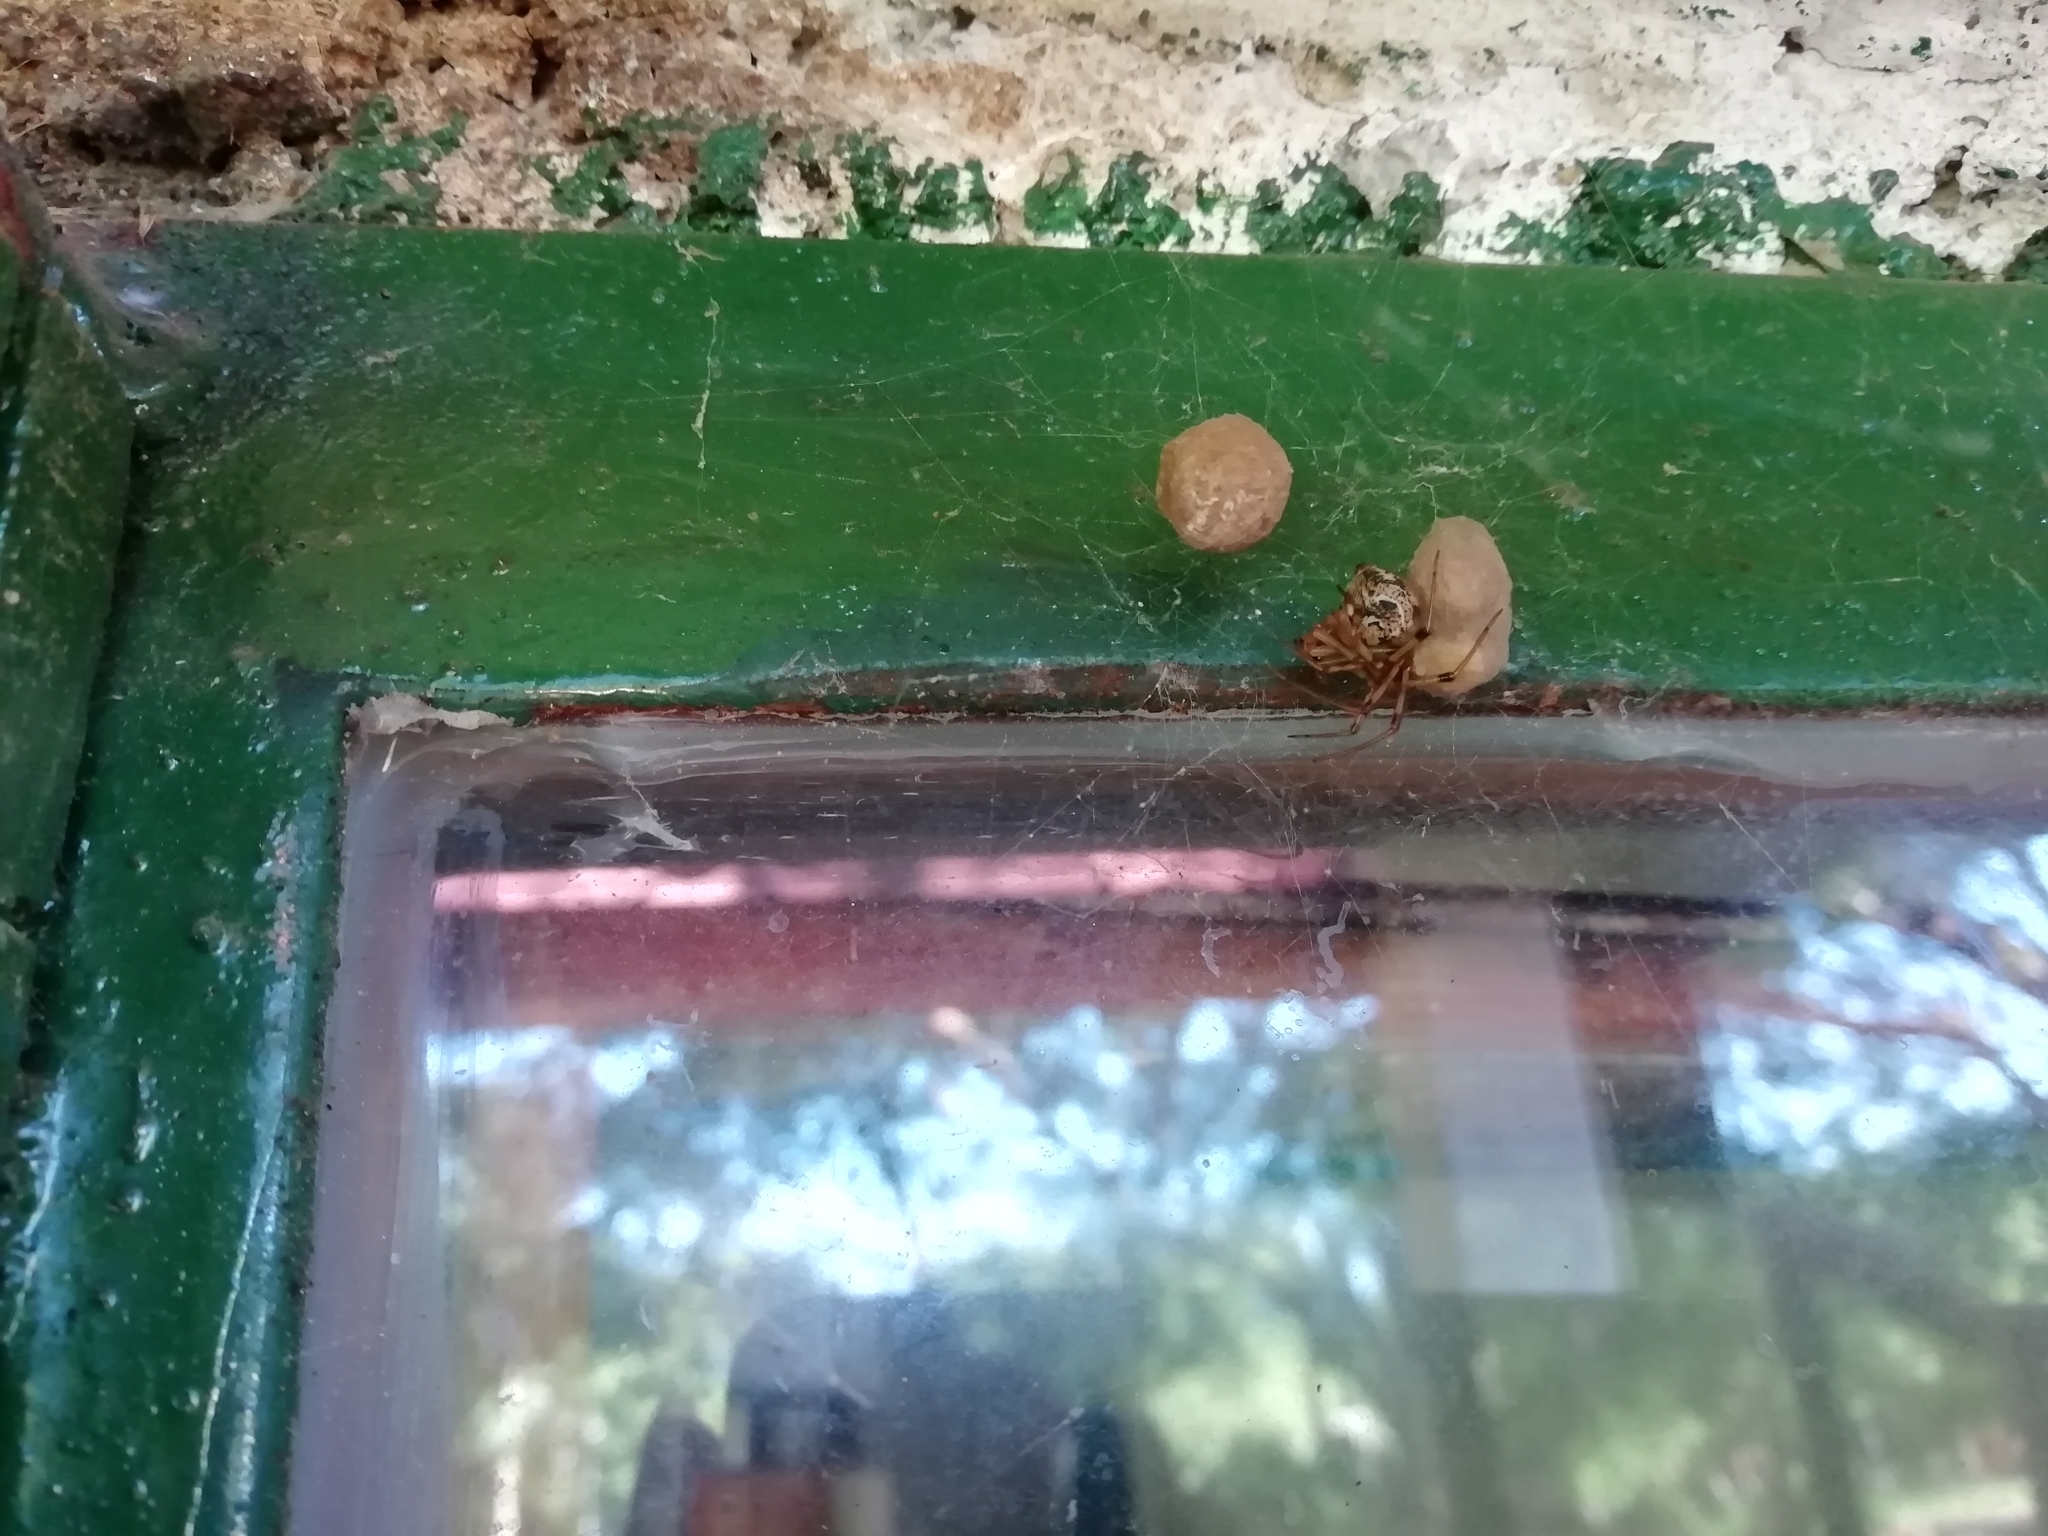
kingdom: Animalia
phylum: Arthropoda
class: Arachnida
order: Araneae
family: Theridiidae
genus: Parasteatoda
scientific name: Parasteatoda tepidariorum
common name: Common house spider
